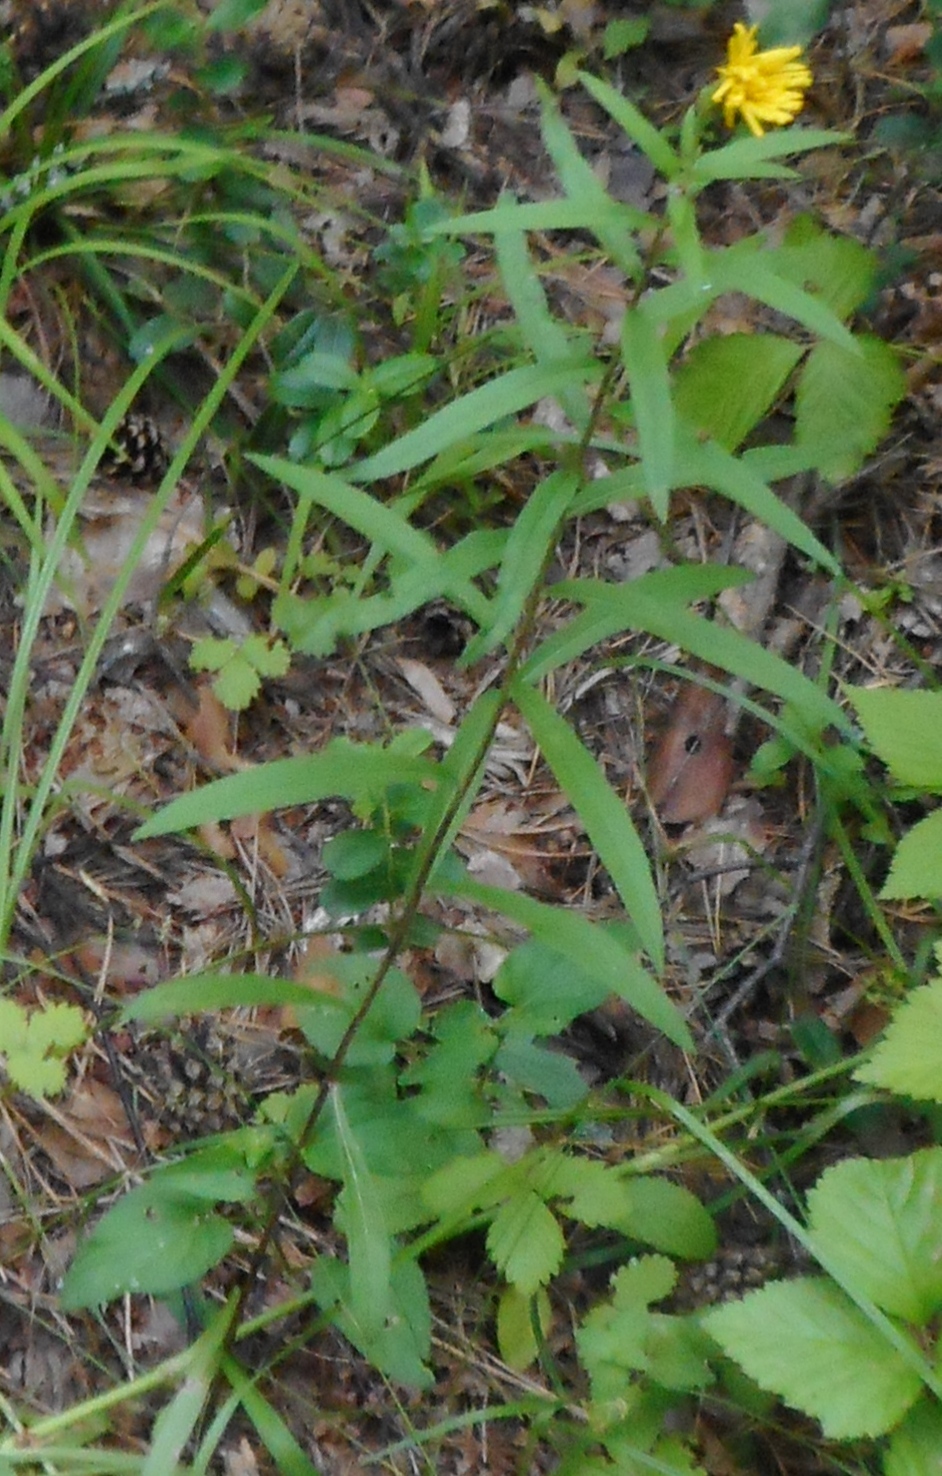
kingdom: Plantae
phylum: Tracheophyta
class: Magnoliopsida
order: Asterales
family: Asteraceae
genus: Hieracium
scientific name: Hieracium umbellatum
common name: Northern hawkweed
